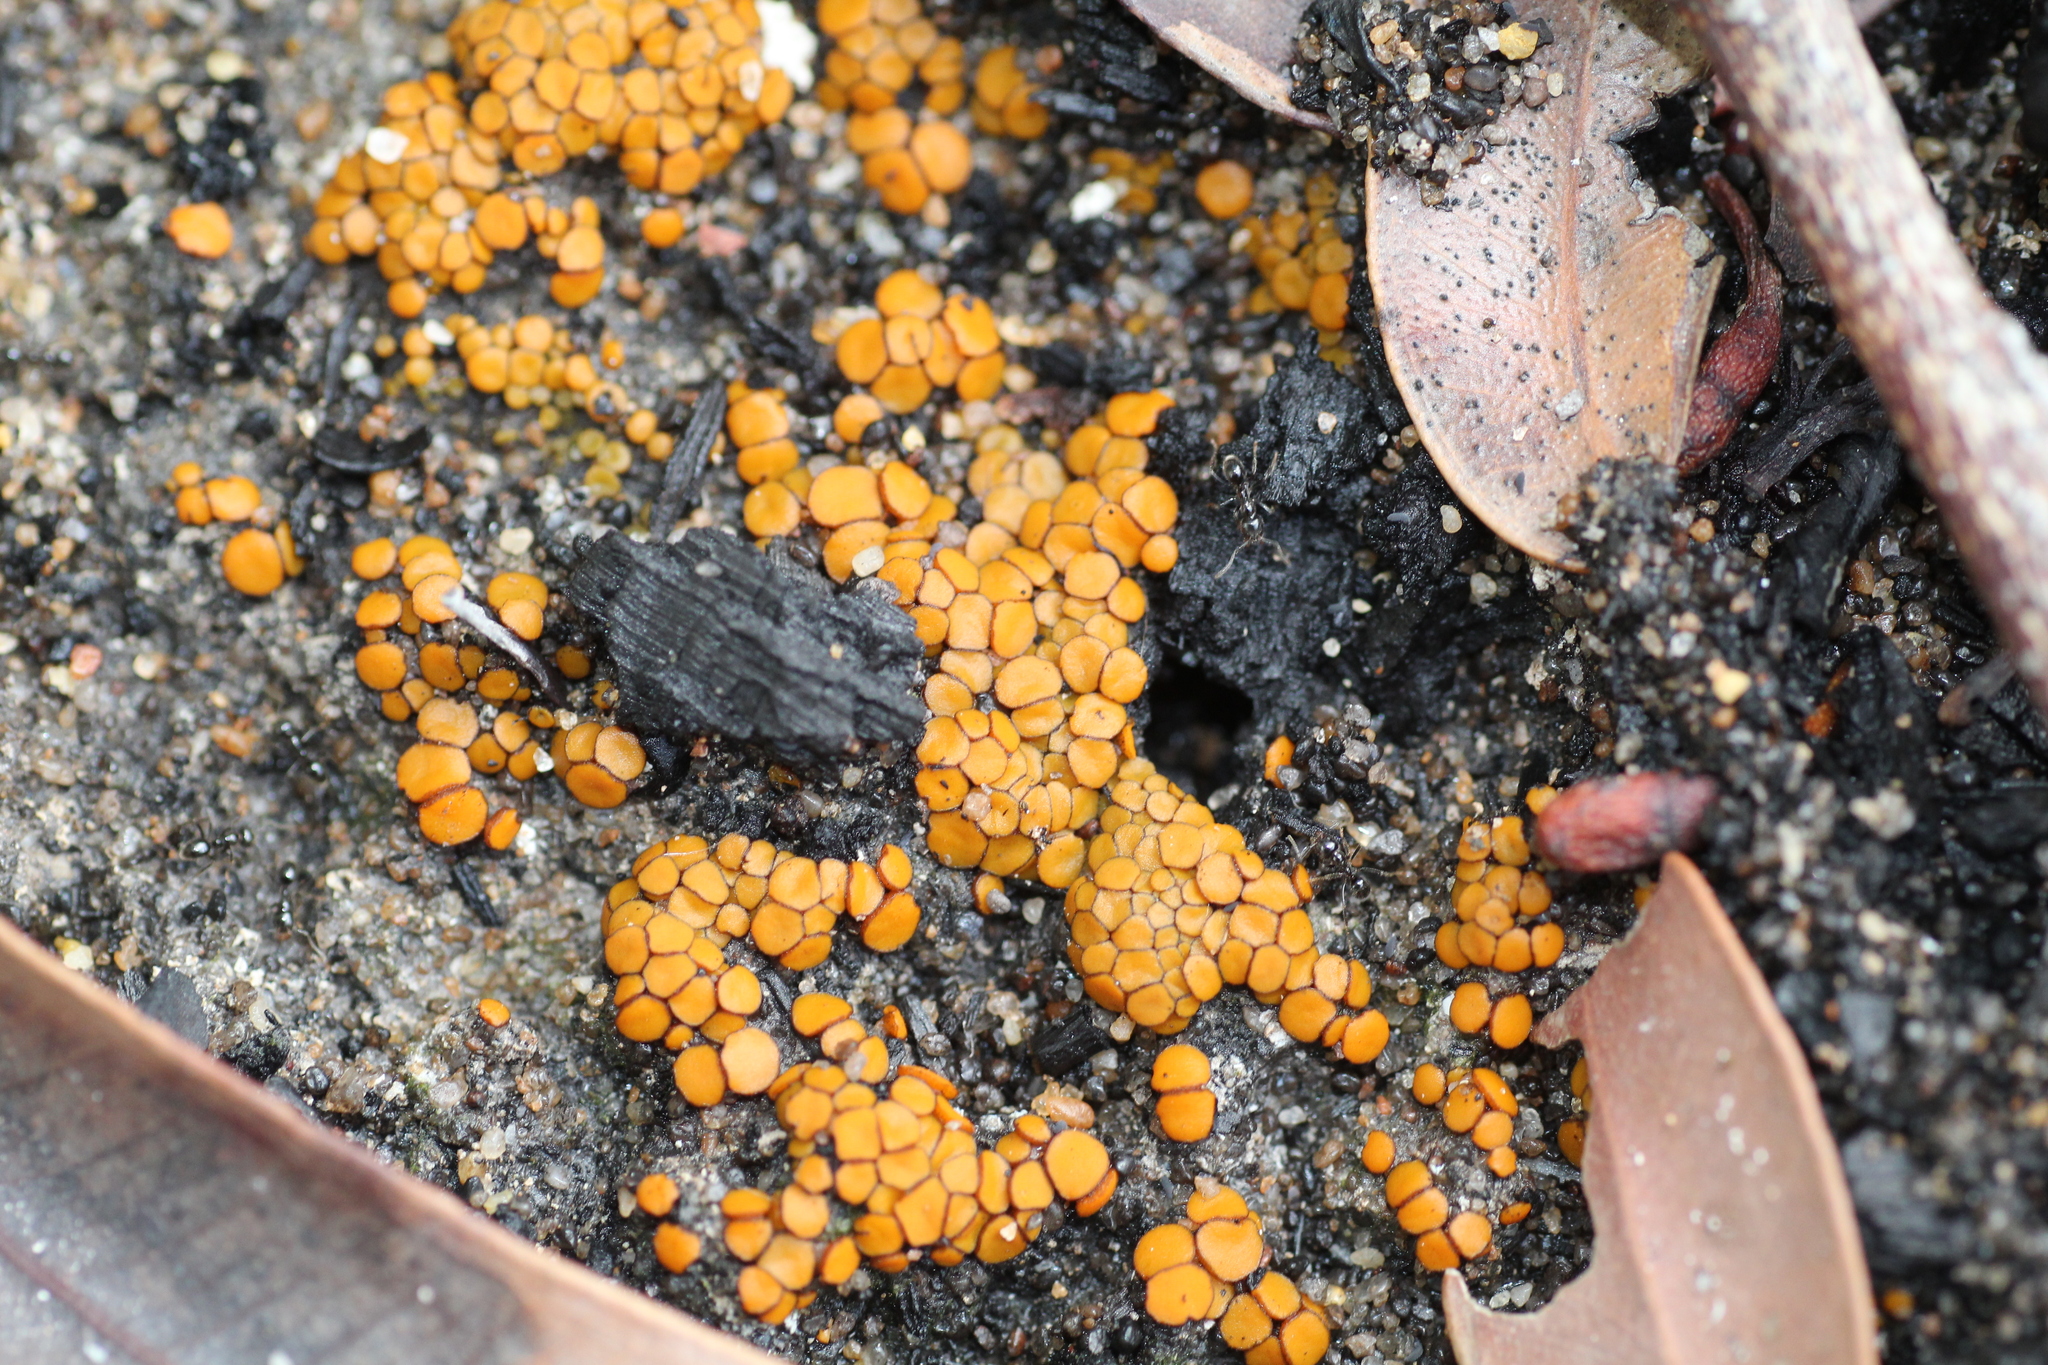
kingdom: Fungi
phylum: Ascomycota
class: Pezizomycetes
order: Pezizales
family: Pyronemataceae
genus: Anthracobia
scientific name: Anthracobia muelleri
